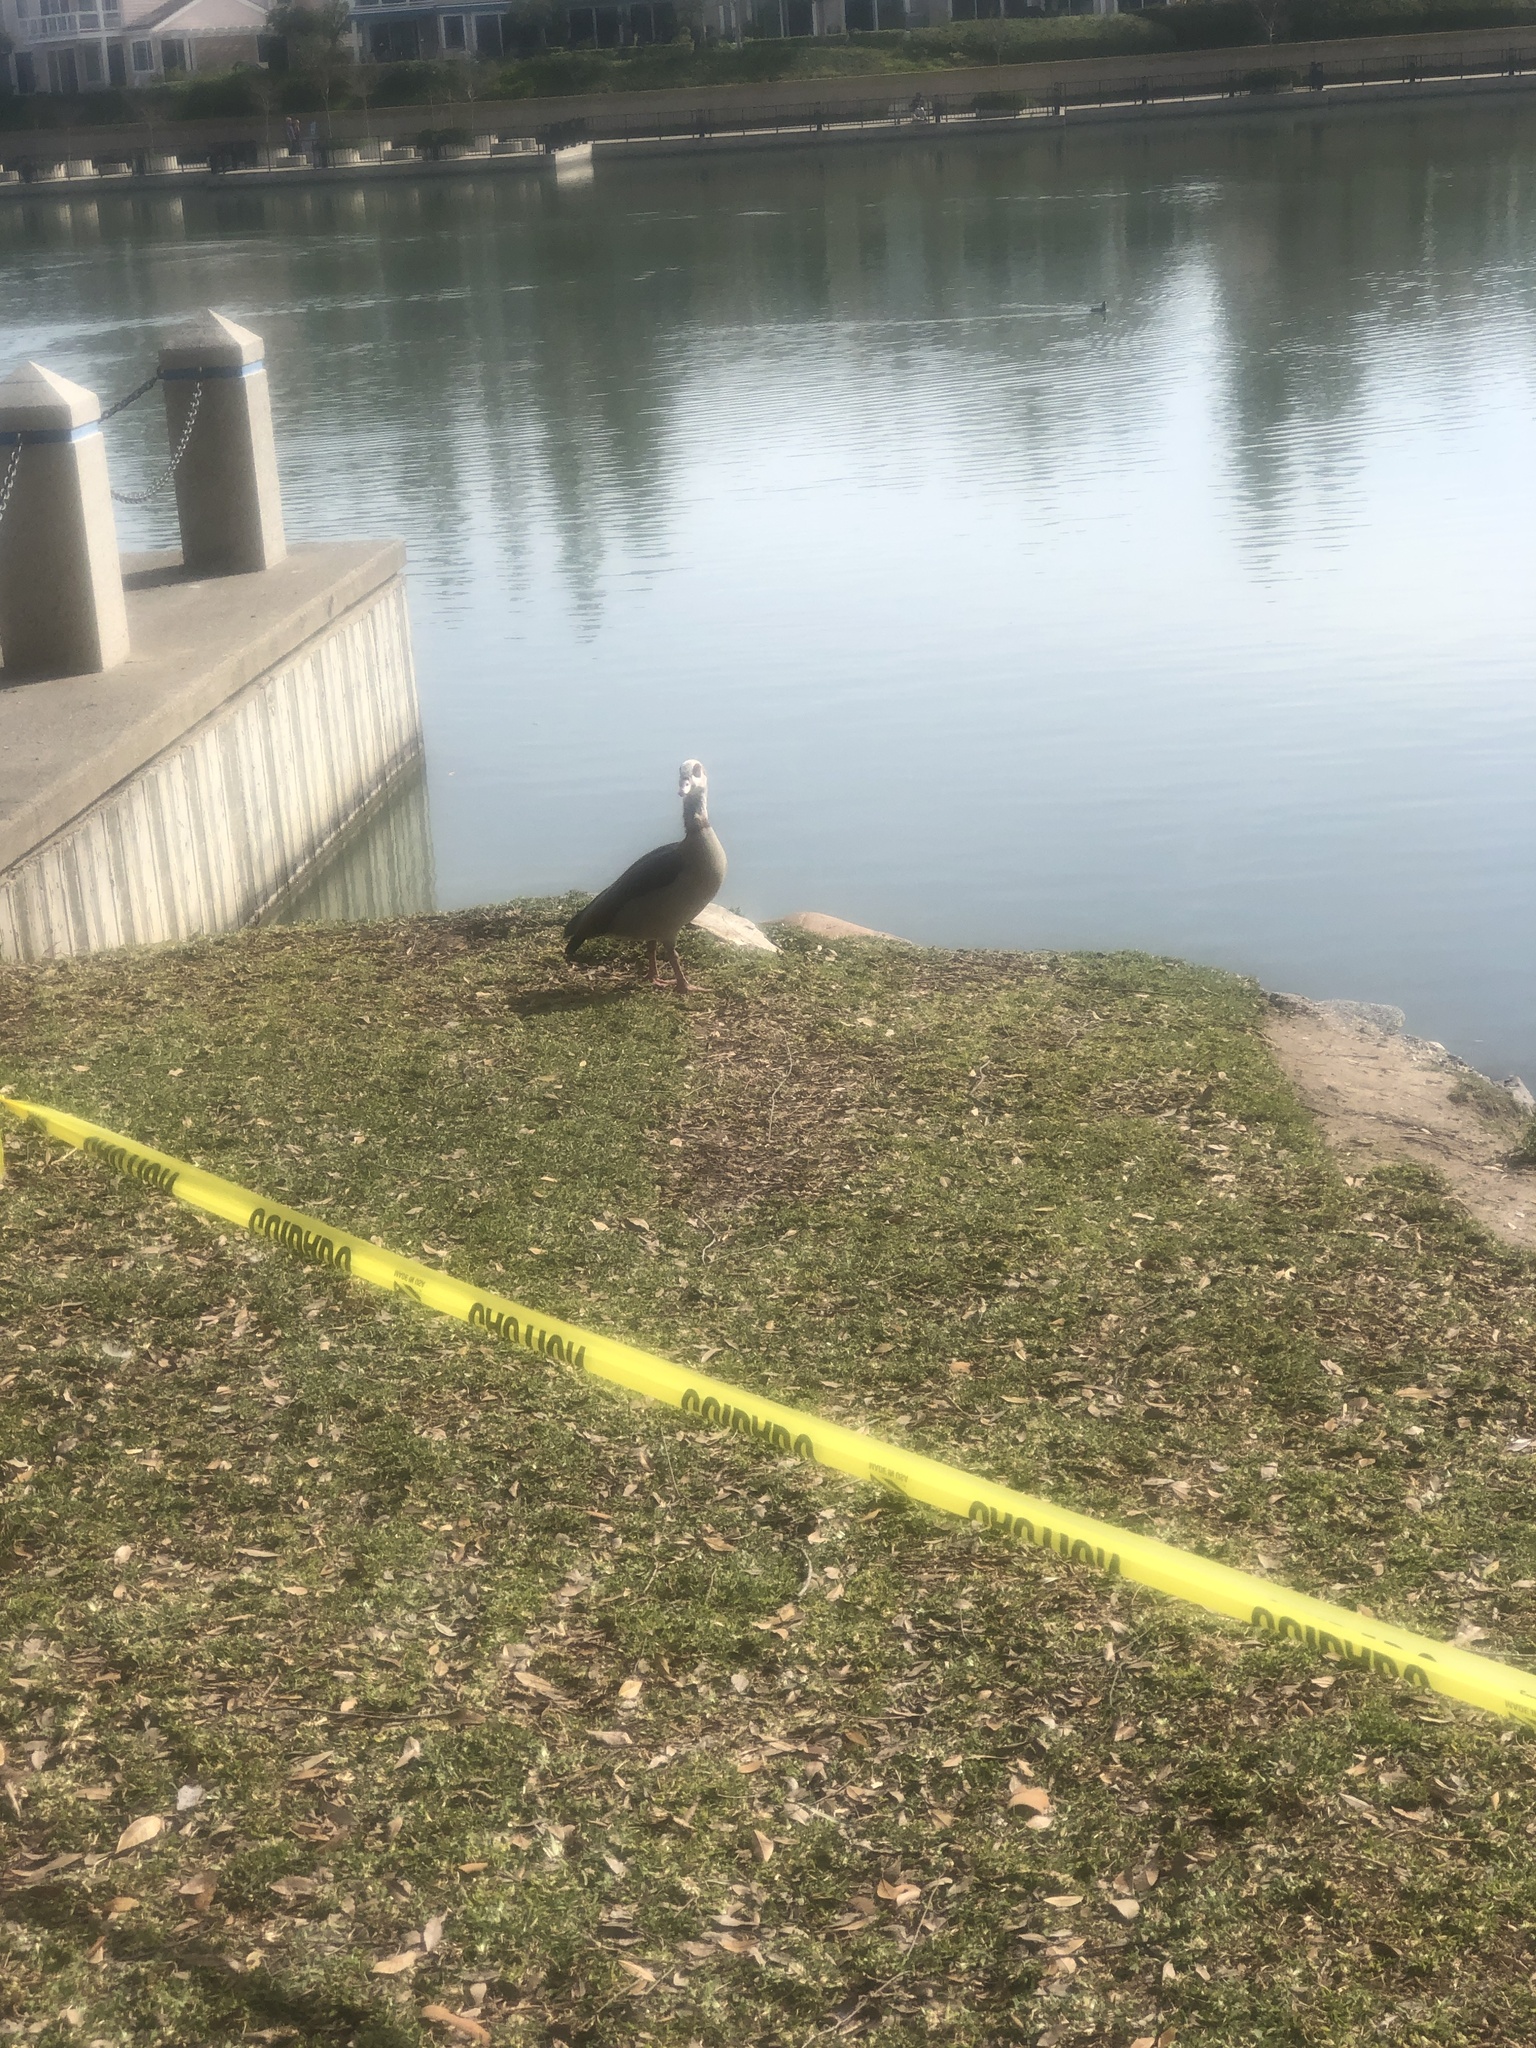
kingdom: Animalia
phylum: Chordata
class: Aves
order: Anseriformes
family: Anatidae
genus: Alopochen
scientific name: Alopochen aegyptiaca
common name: Egyptian goose
